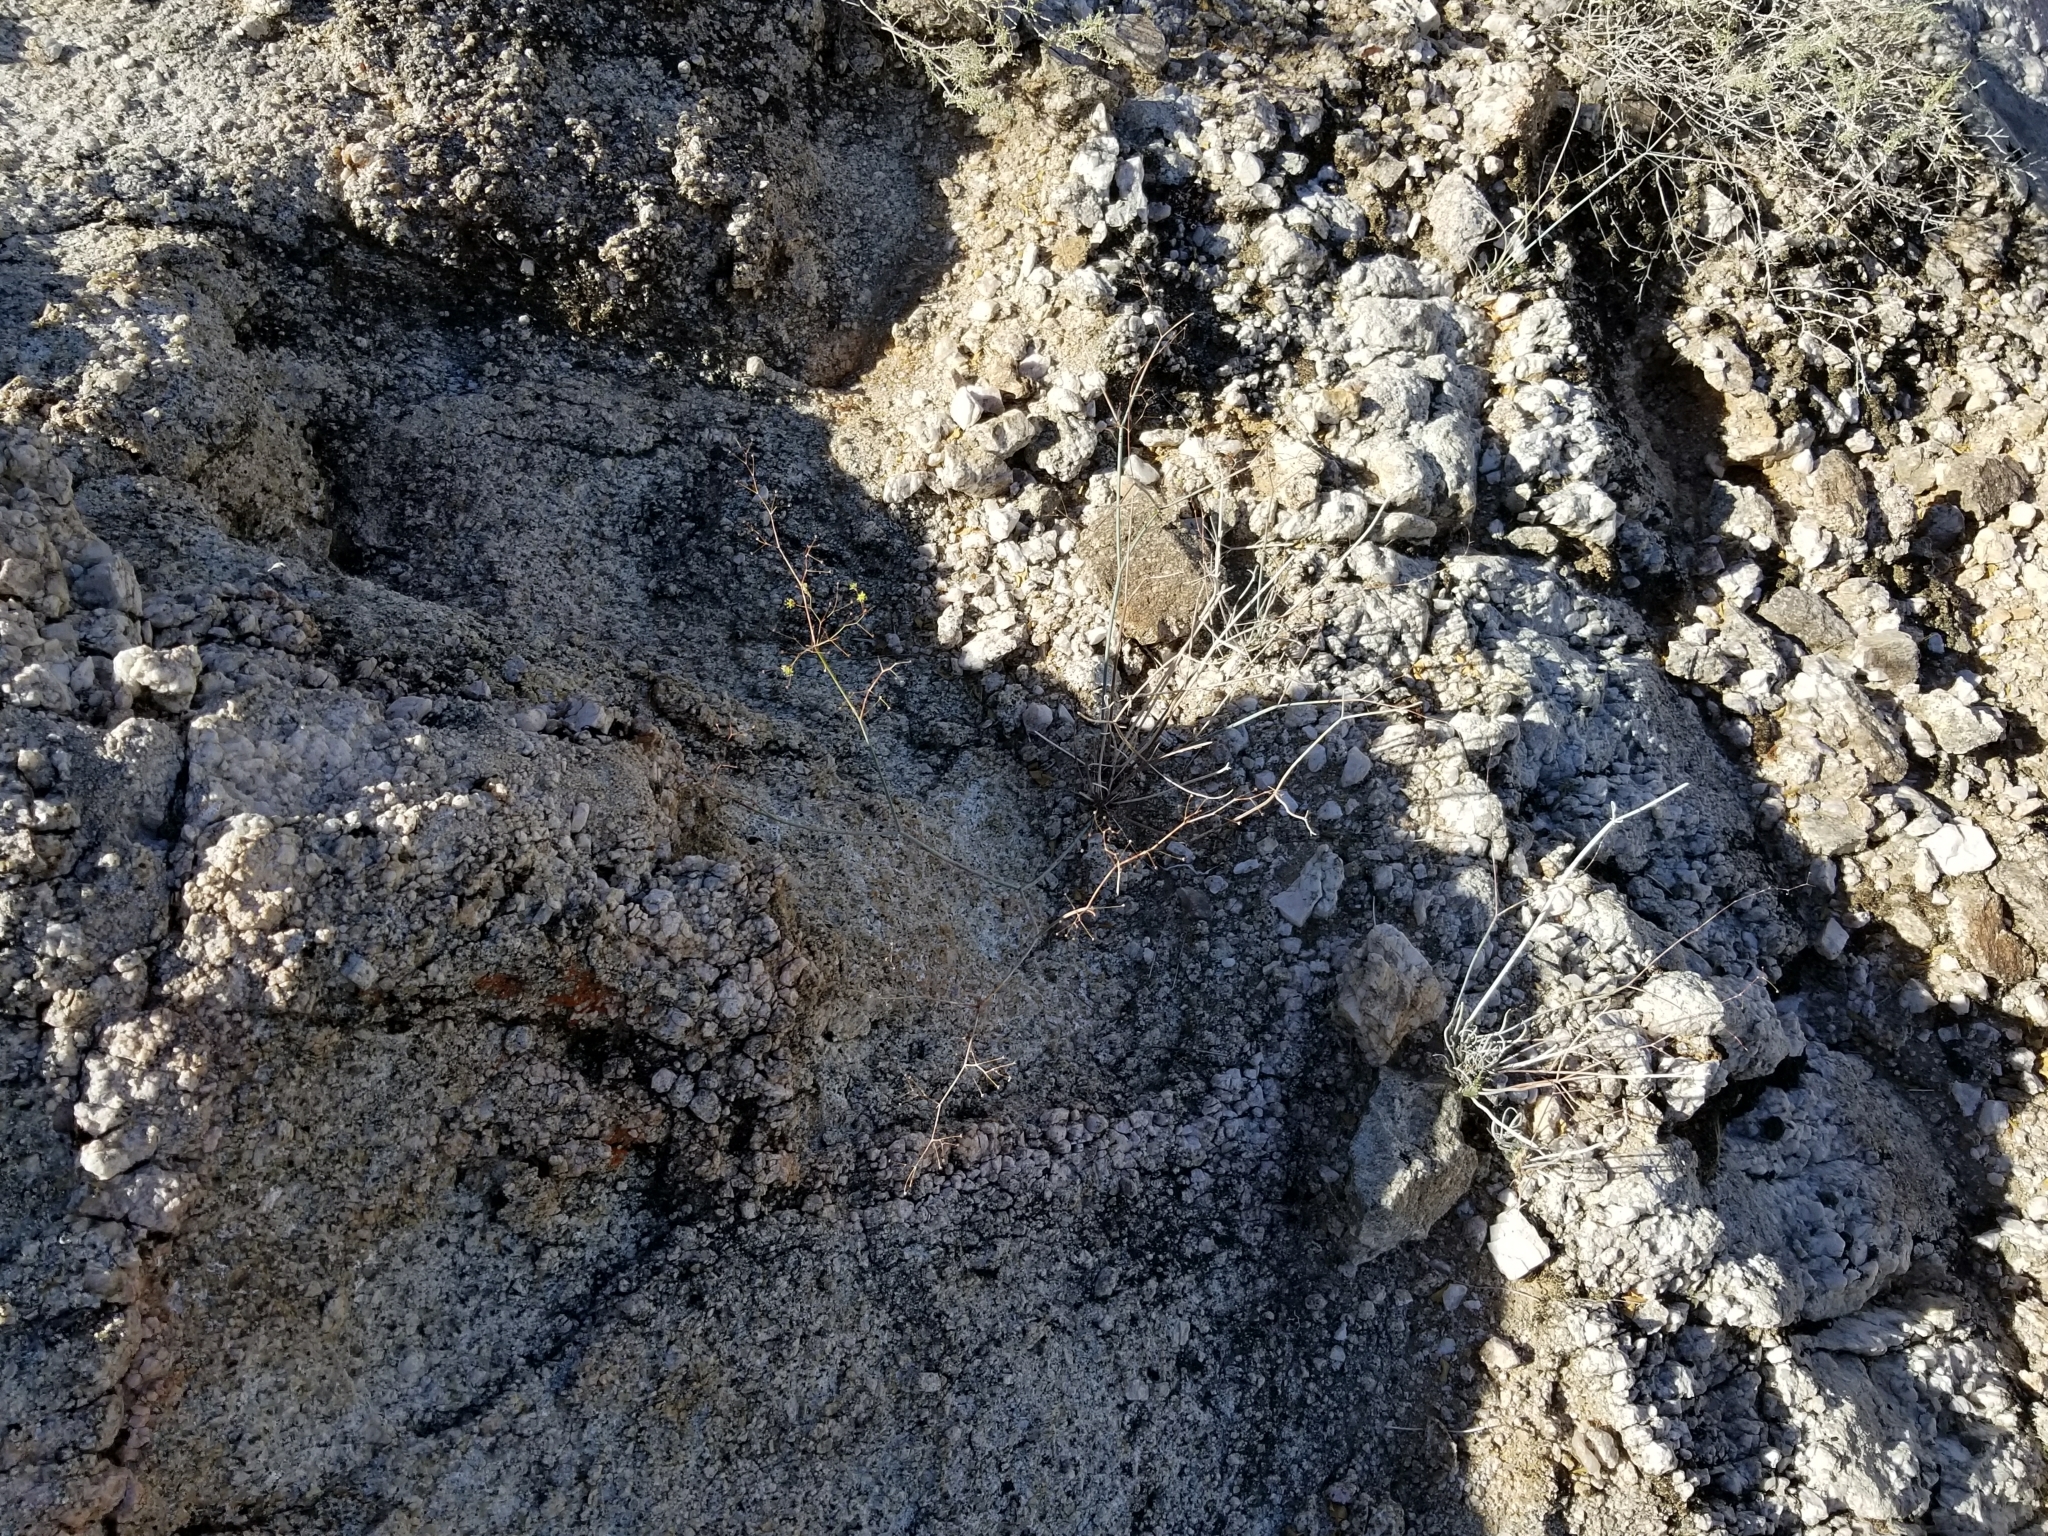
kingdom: Plantae
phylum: Tracheophyta
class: Magnoliopsida
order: Caryophyllales
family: Polygonaceae
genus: Eriogonum
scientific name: Eriogonum trichopes
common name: Little desert trumpet
